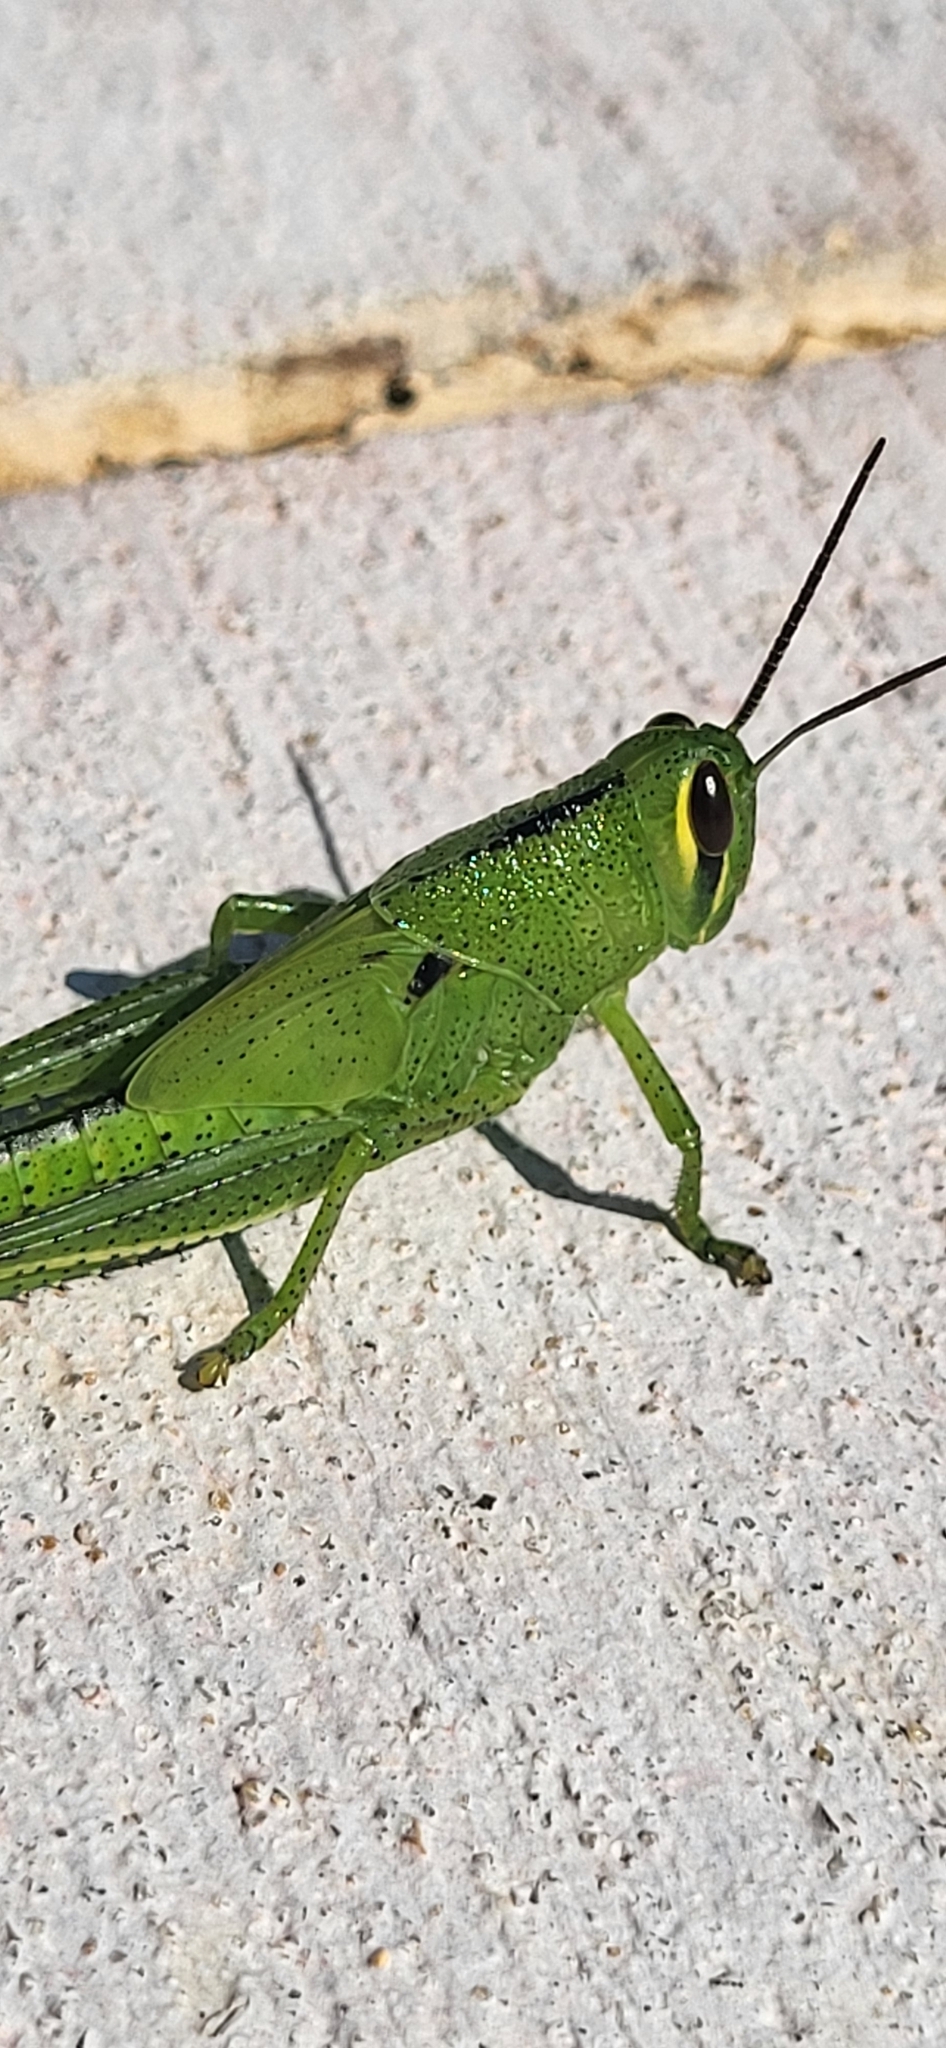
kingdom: Animalia
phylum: Arthropoda
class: Insecta
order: Orthoptera
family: Acrididae
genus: Schistocerca
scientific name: Schistocerca americana
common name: American bird locust
